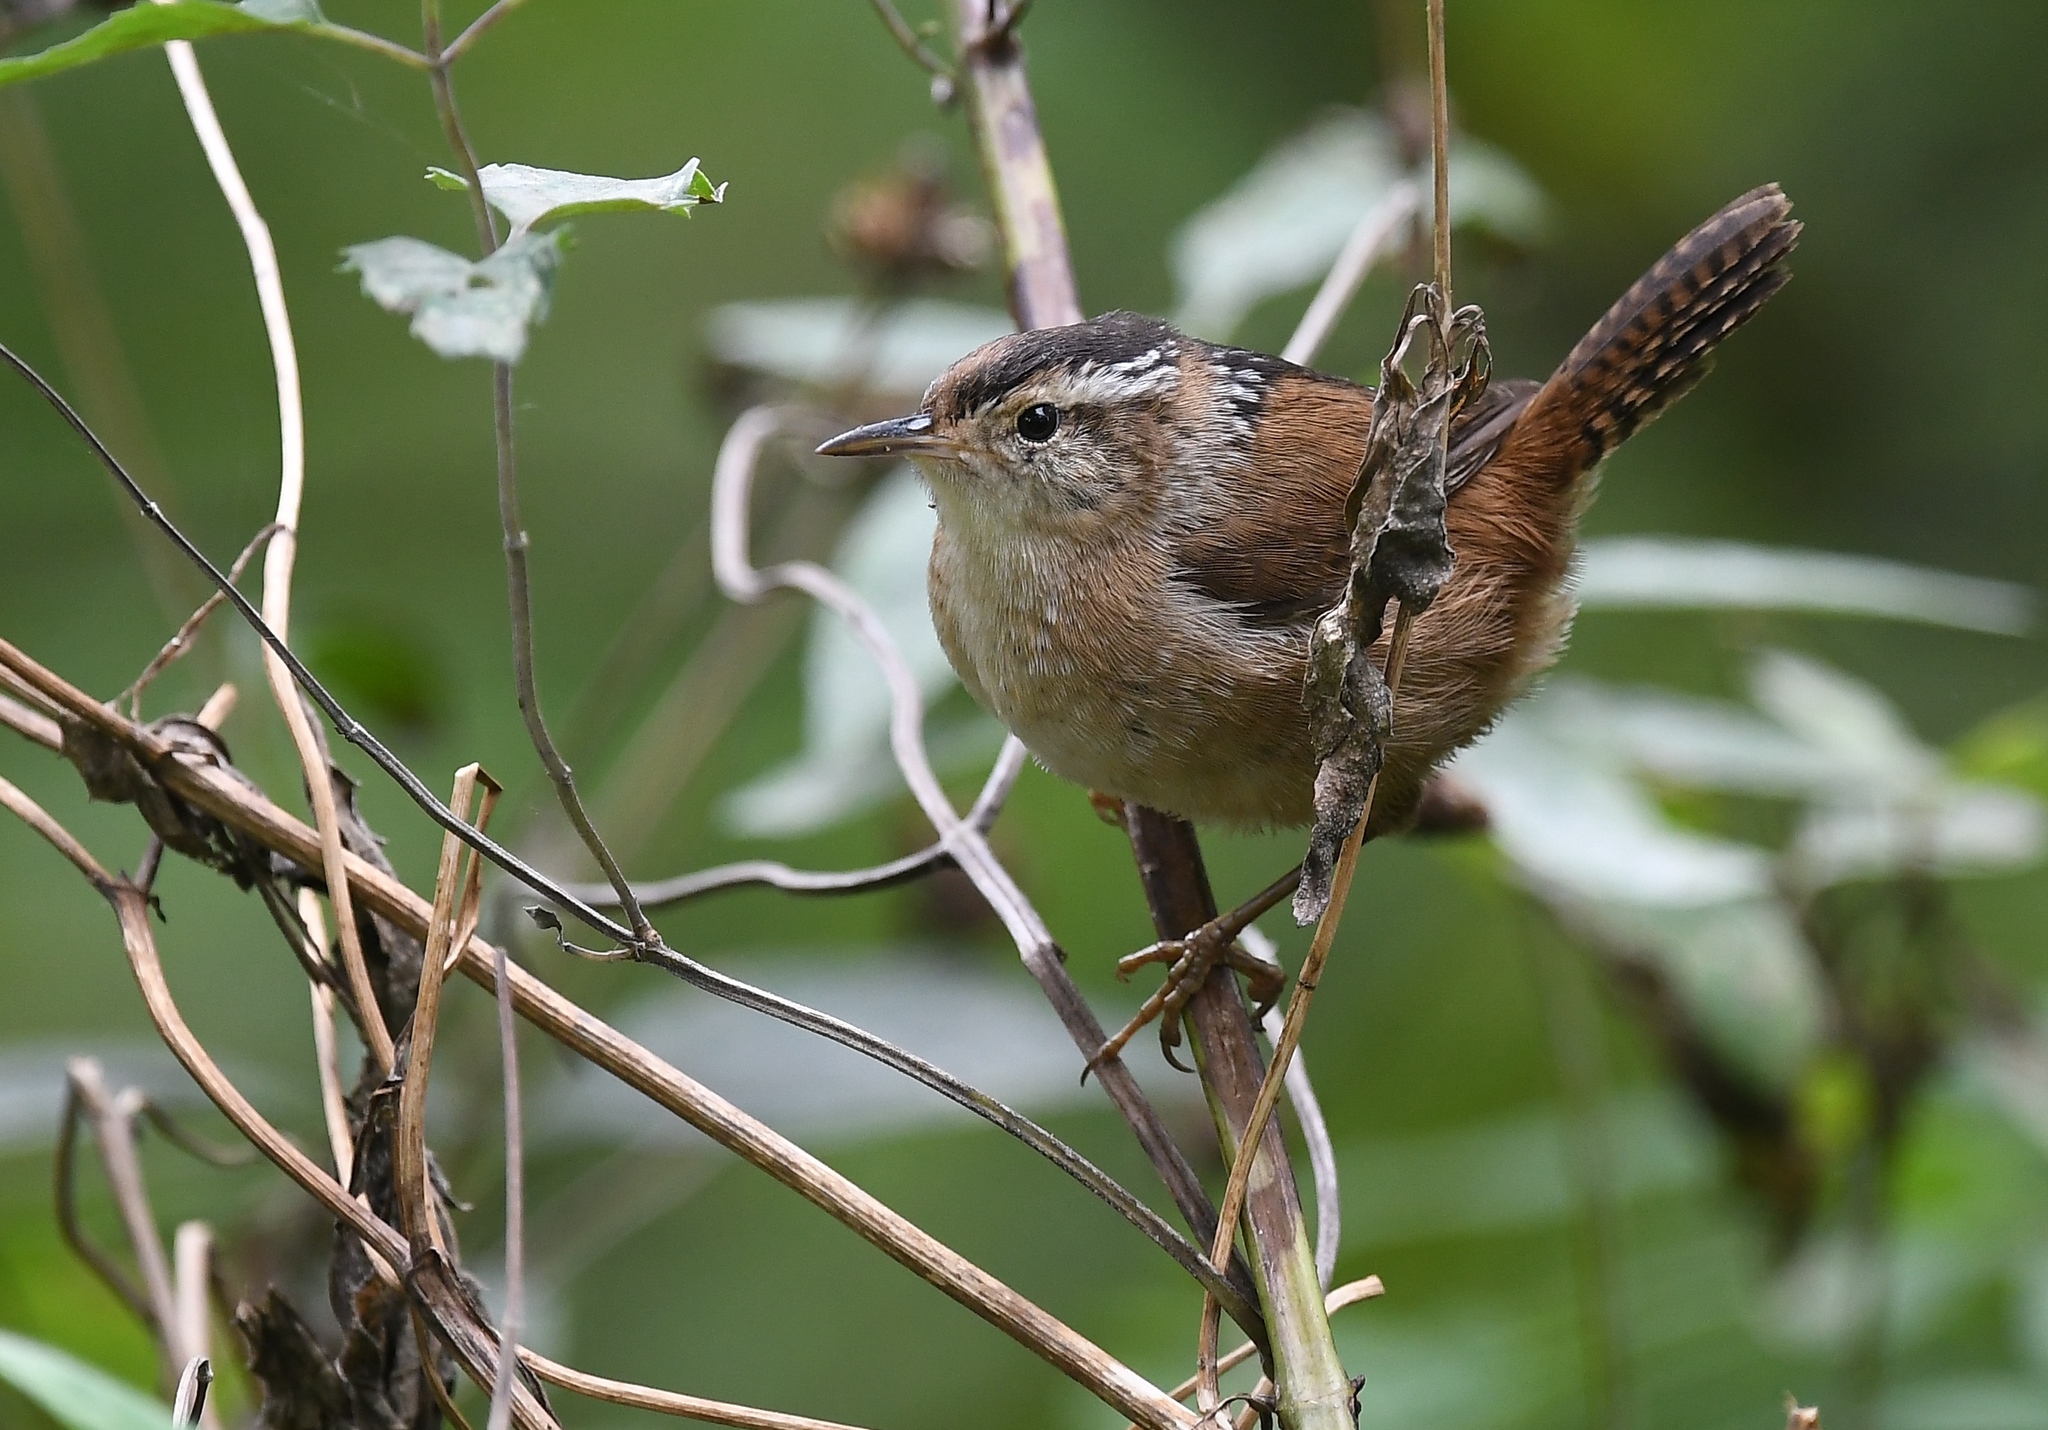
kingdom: Animalia
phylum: Chordata
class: Aves
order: Passeriformes
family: Troglodytidae
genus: Cistothorus
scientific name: Cistothorus palustris
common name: Marsh wren
